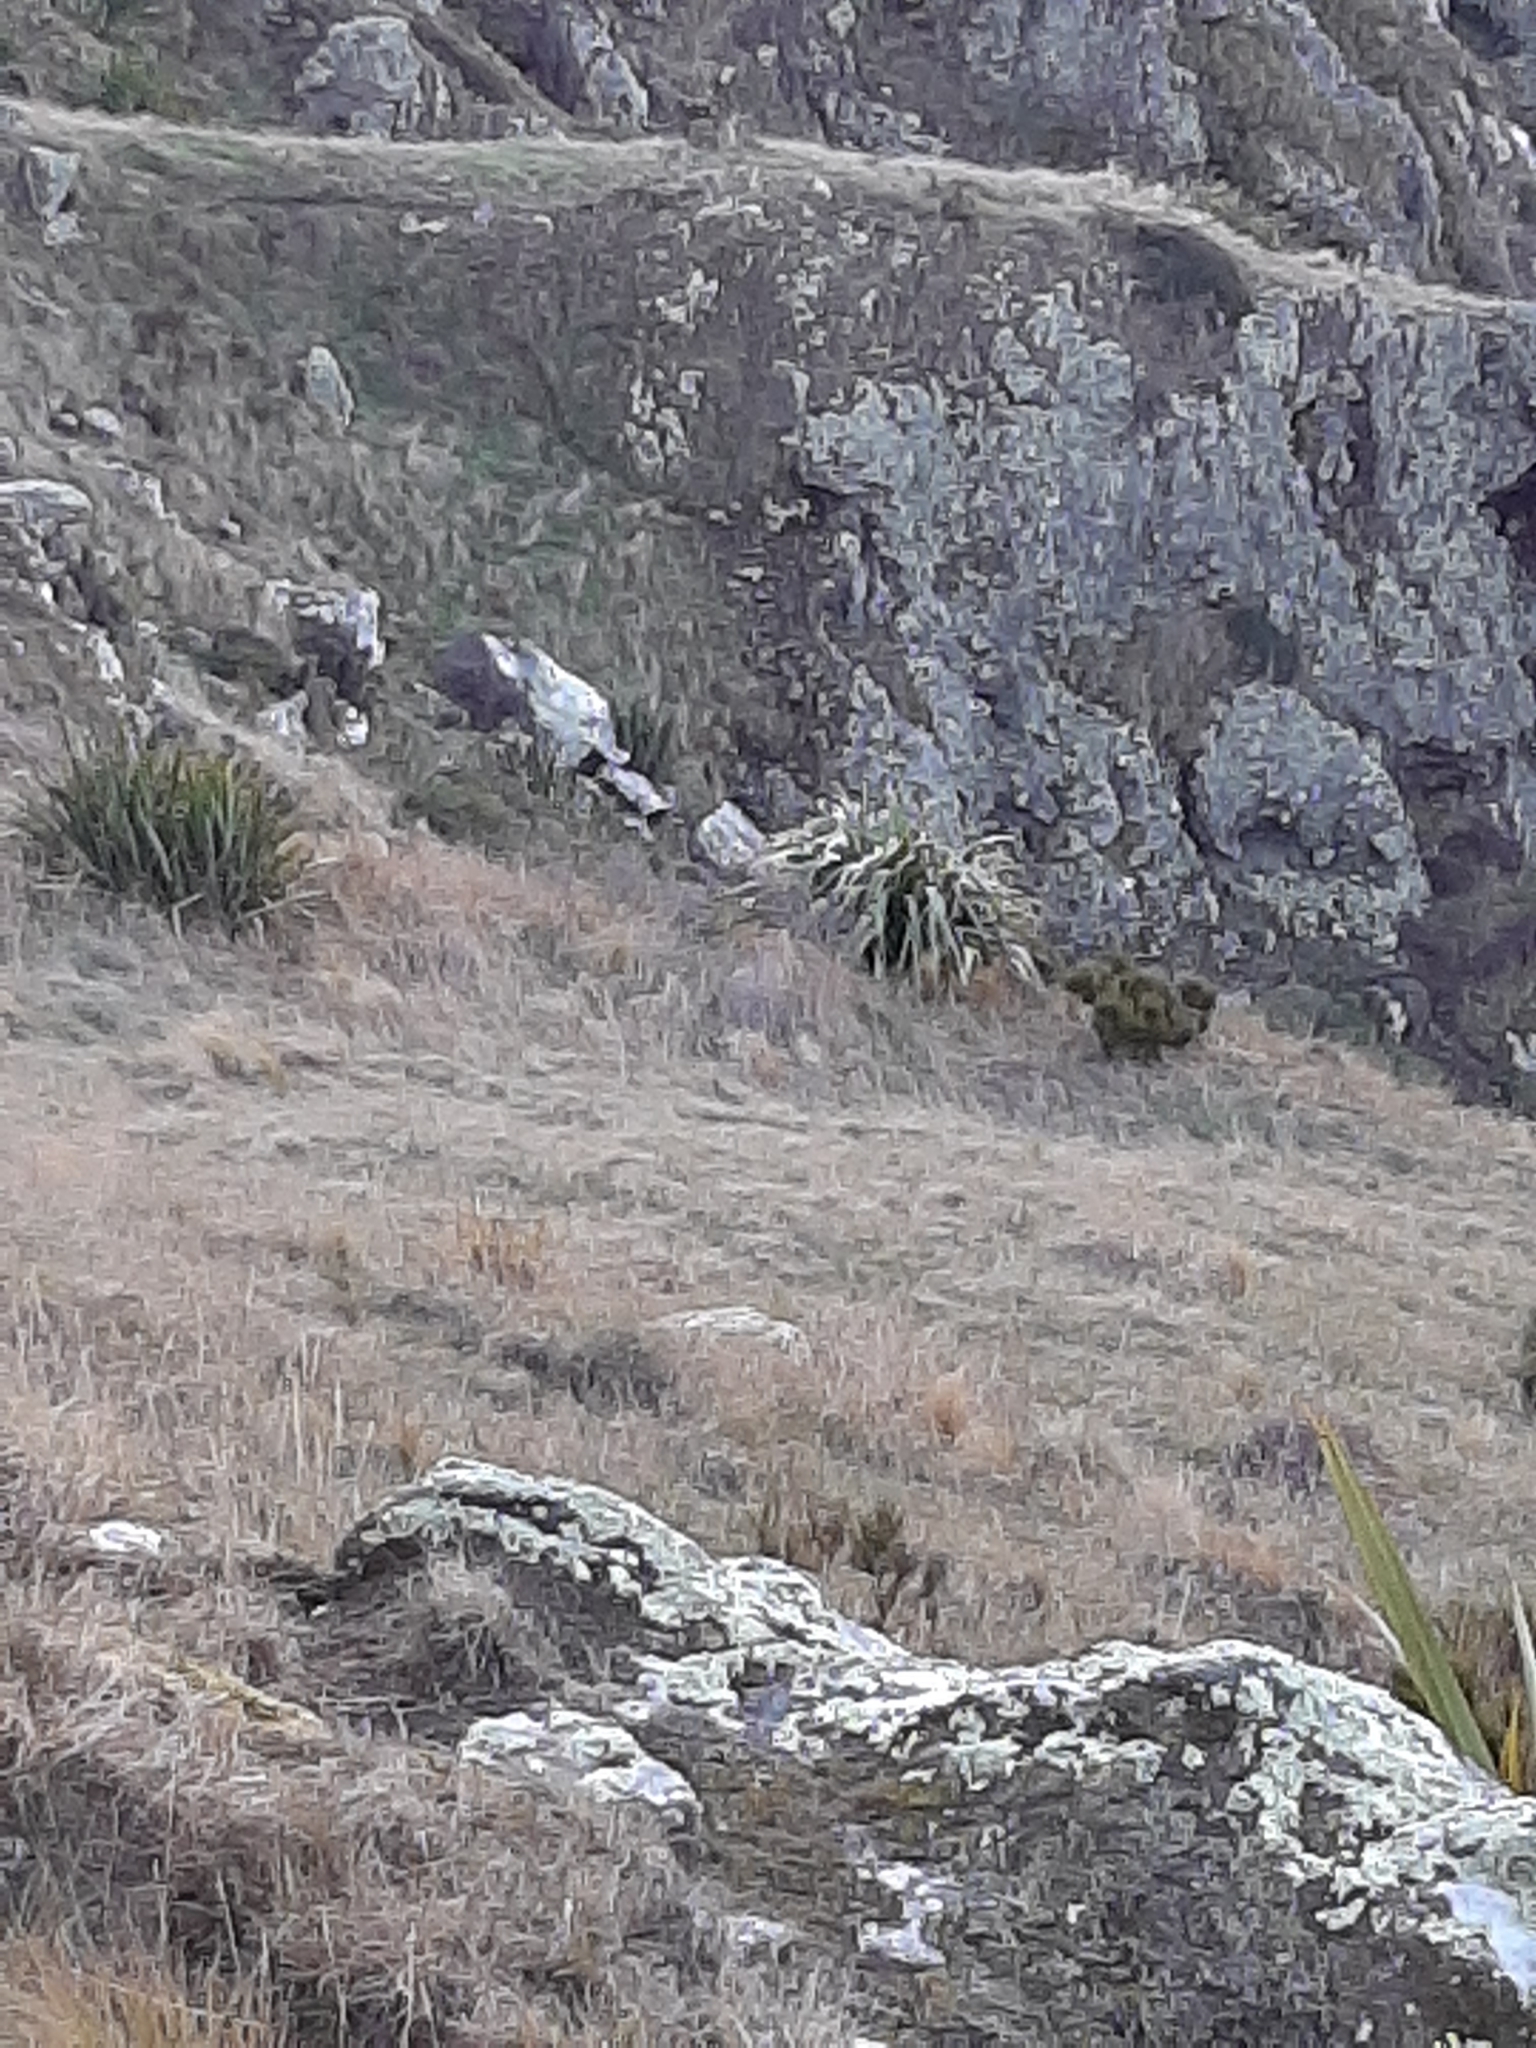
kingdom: Plantae
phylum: Tracheophyta
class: Liliopsida
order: Asparagales
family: Asphodelaceae
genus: Phormium
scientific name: Phormium colensoi
